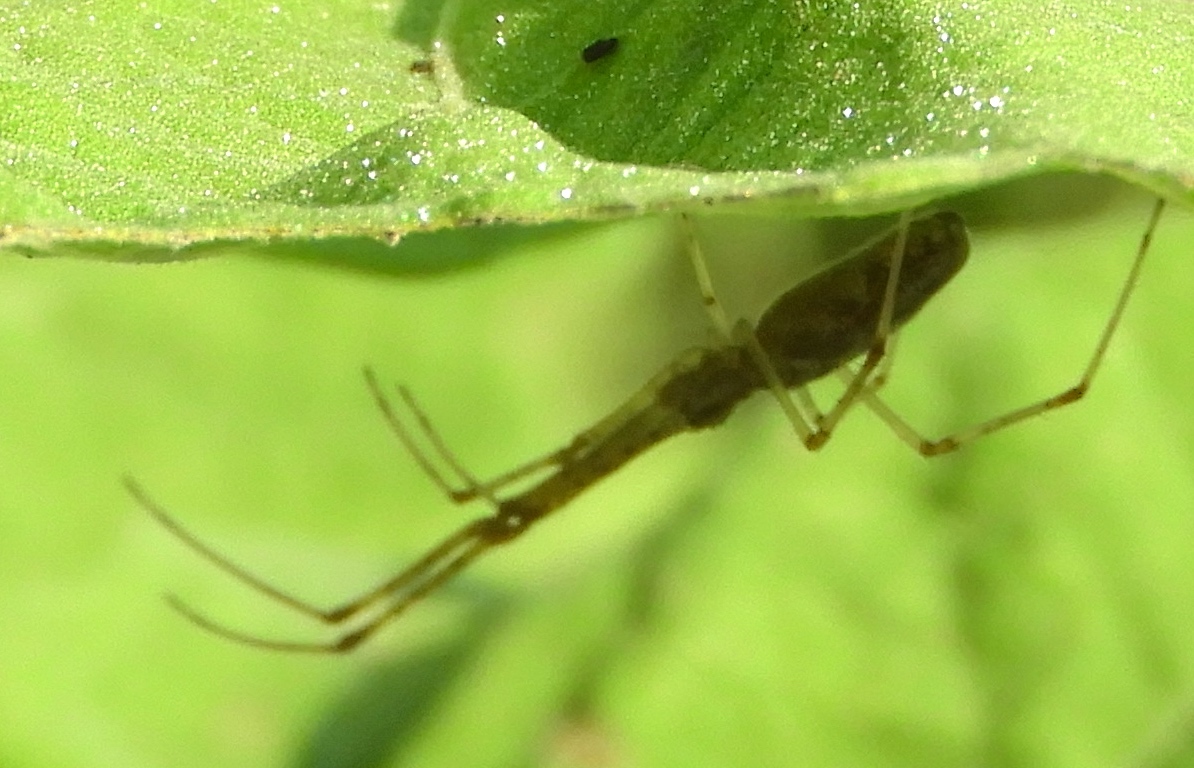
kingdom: Animalia
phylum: Arthropoda
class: Arachnida
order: Araneae
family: Tetragnathidae
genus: Tetragnatha
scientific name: Tetragnatha
